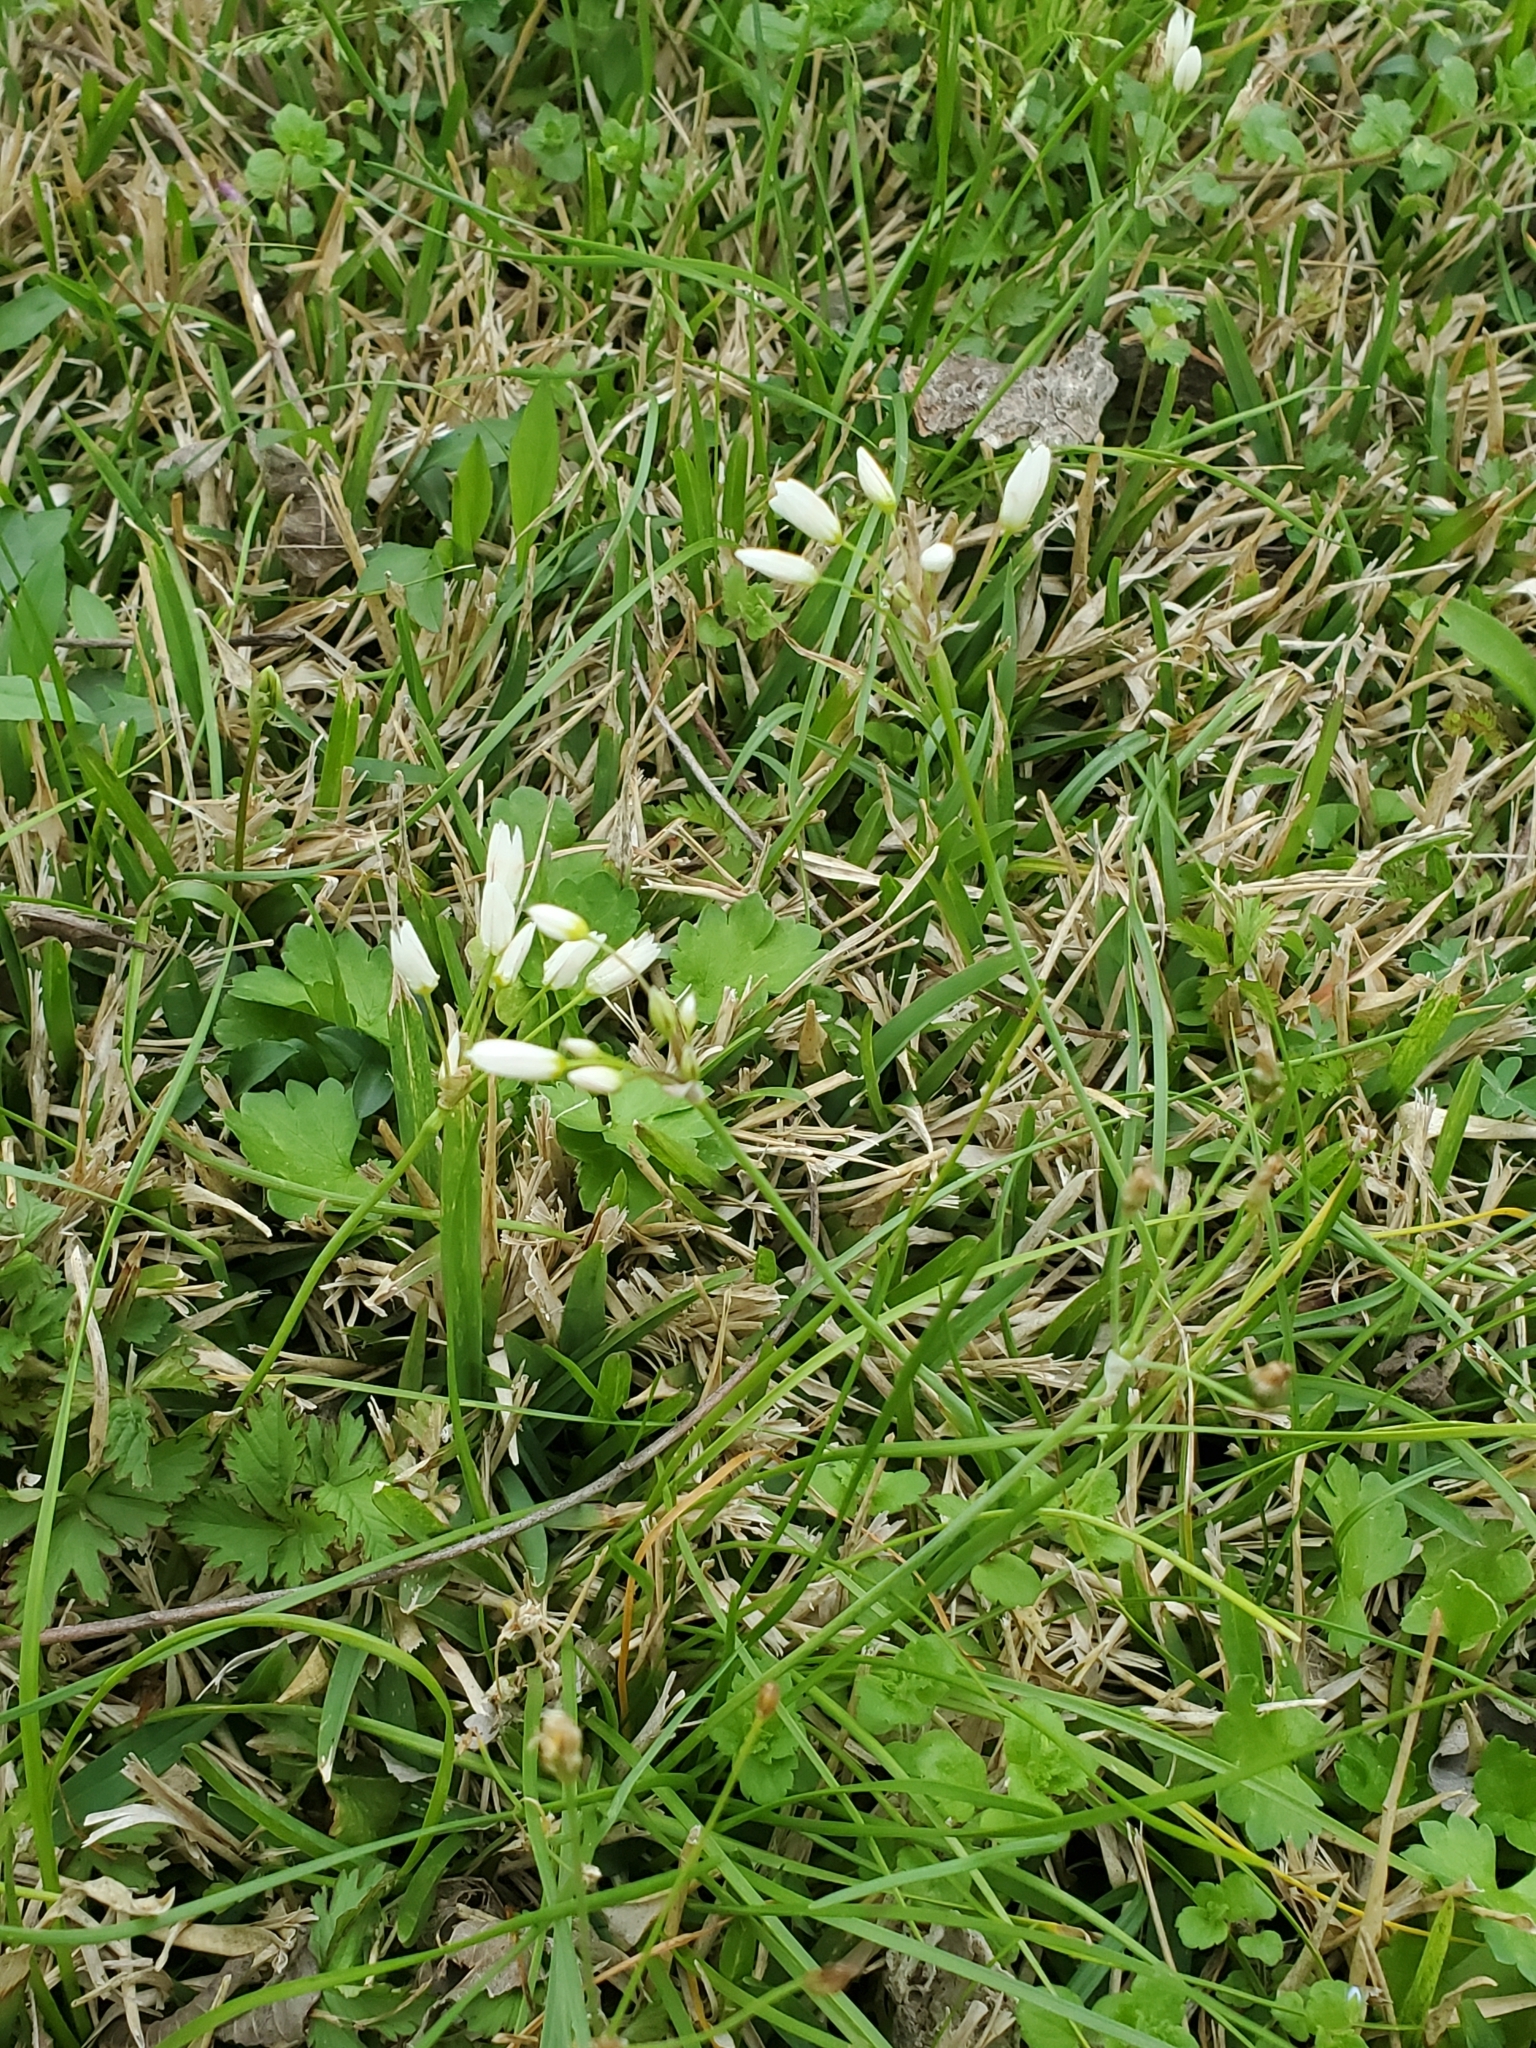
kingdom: Plantae
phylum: Tracheophyta
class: Liliopsida
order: Asparagales
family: Amaryllidaceae
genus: Nothoscordum
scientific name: Nothoscordum bivalve
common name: Crow-poison
